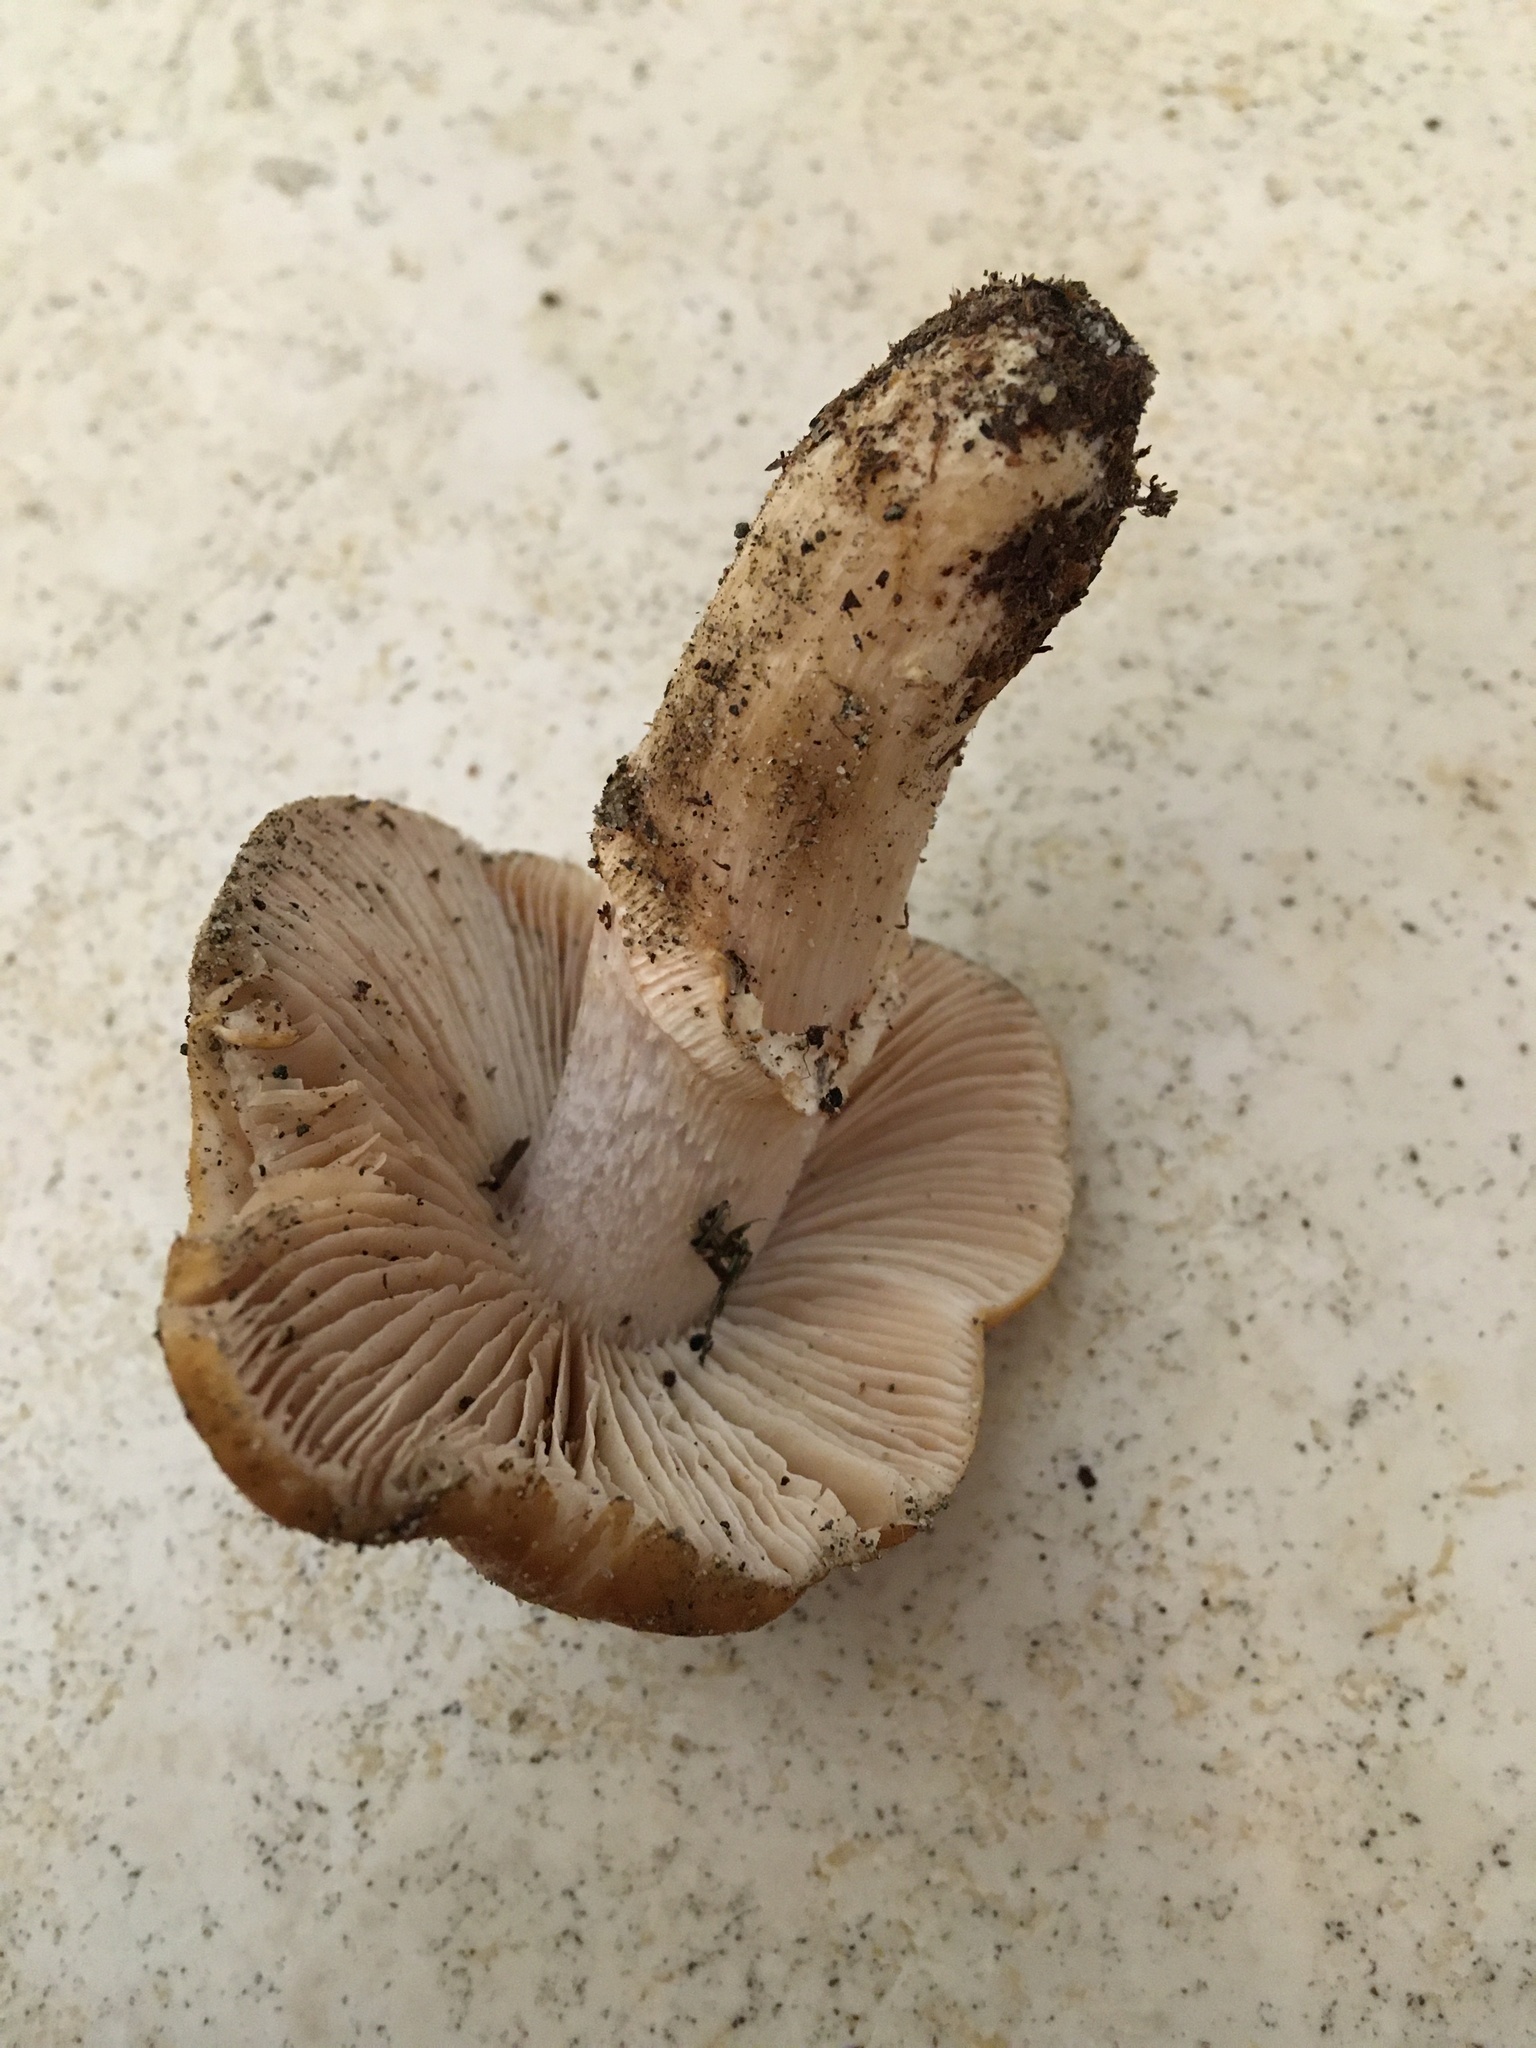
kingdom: Fungi
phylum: Basidiomycota
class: Agaricomycetes
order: Agaricales
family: Cortinariaceae
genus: Cortinarius
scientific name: Cortinarius caperatus
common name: The gypsy
